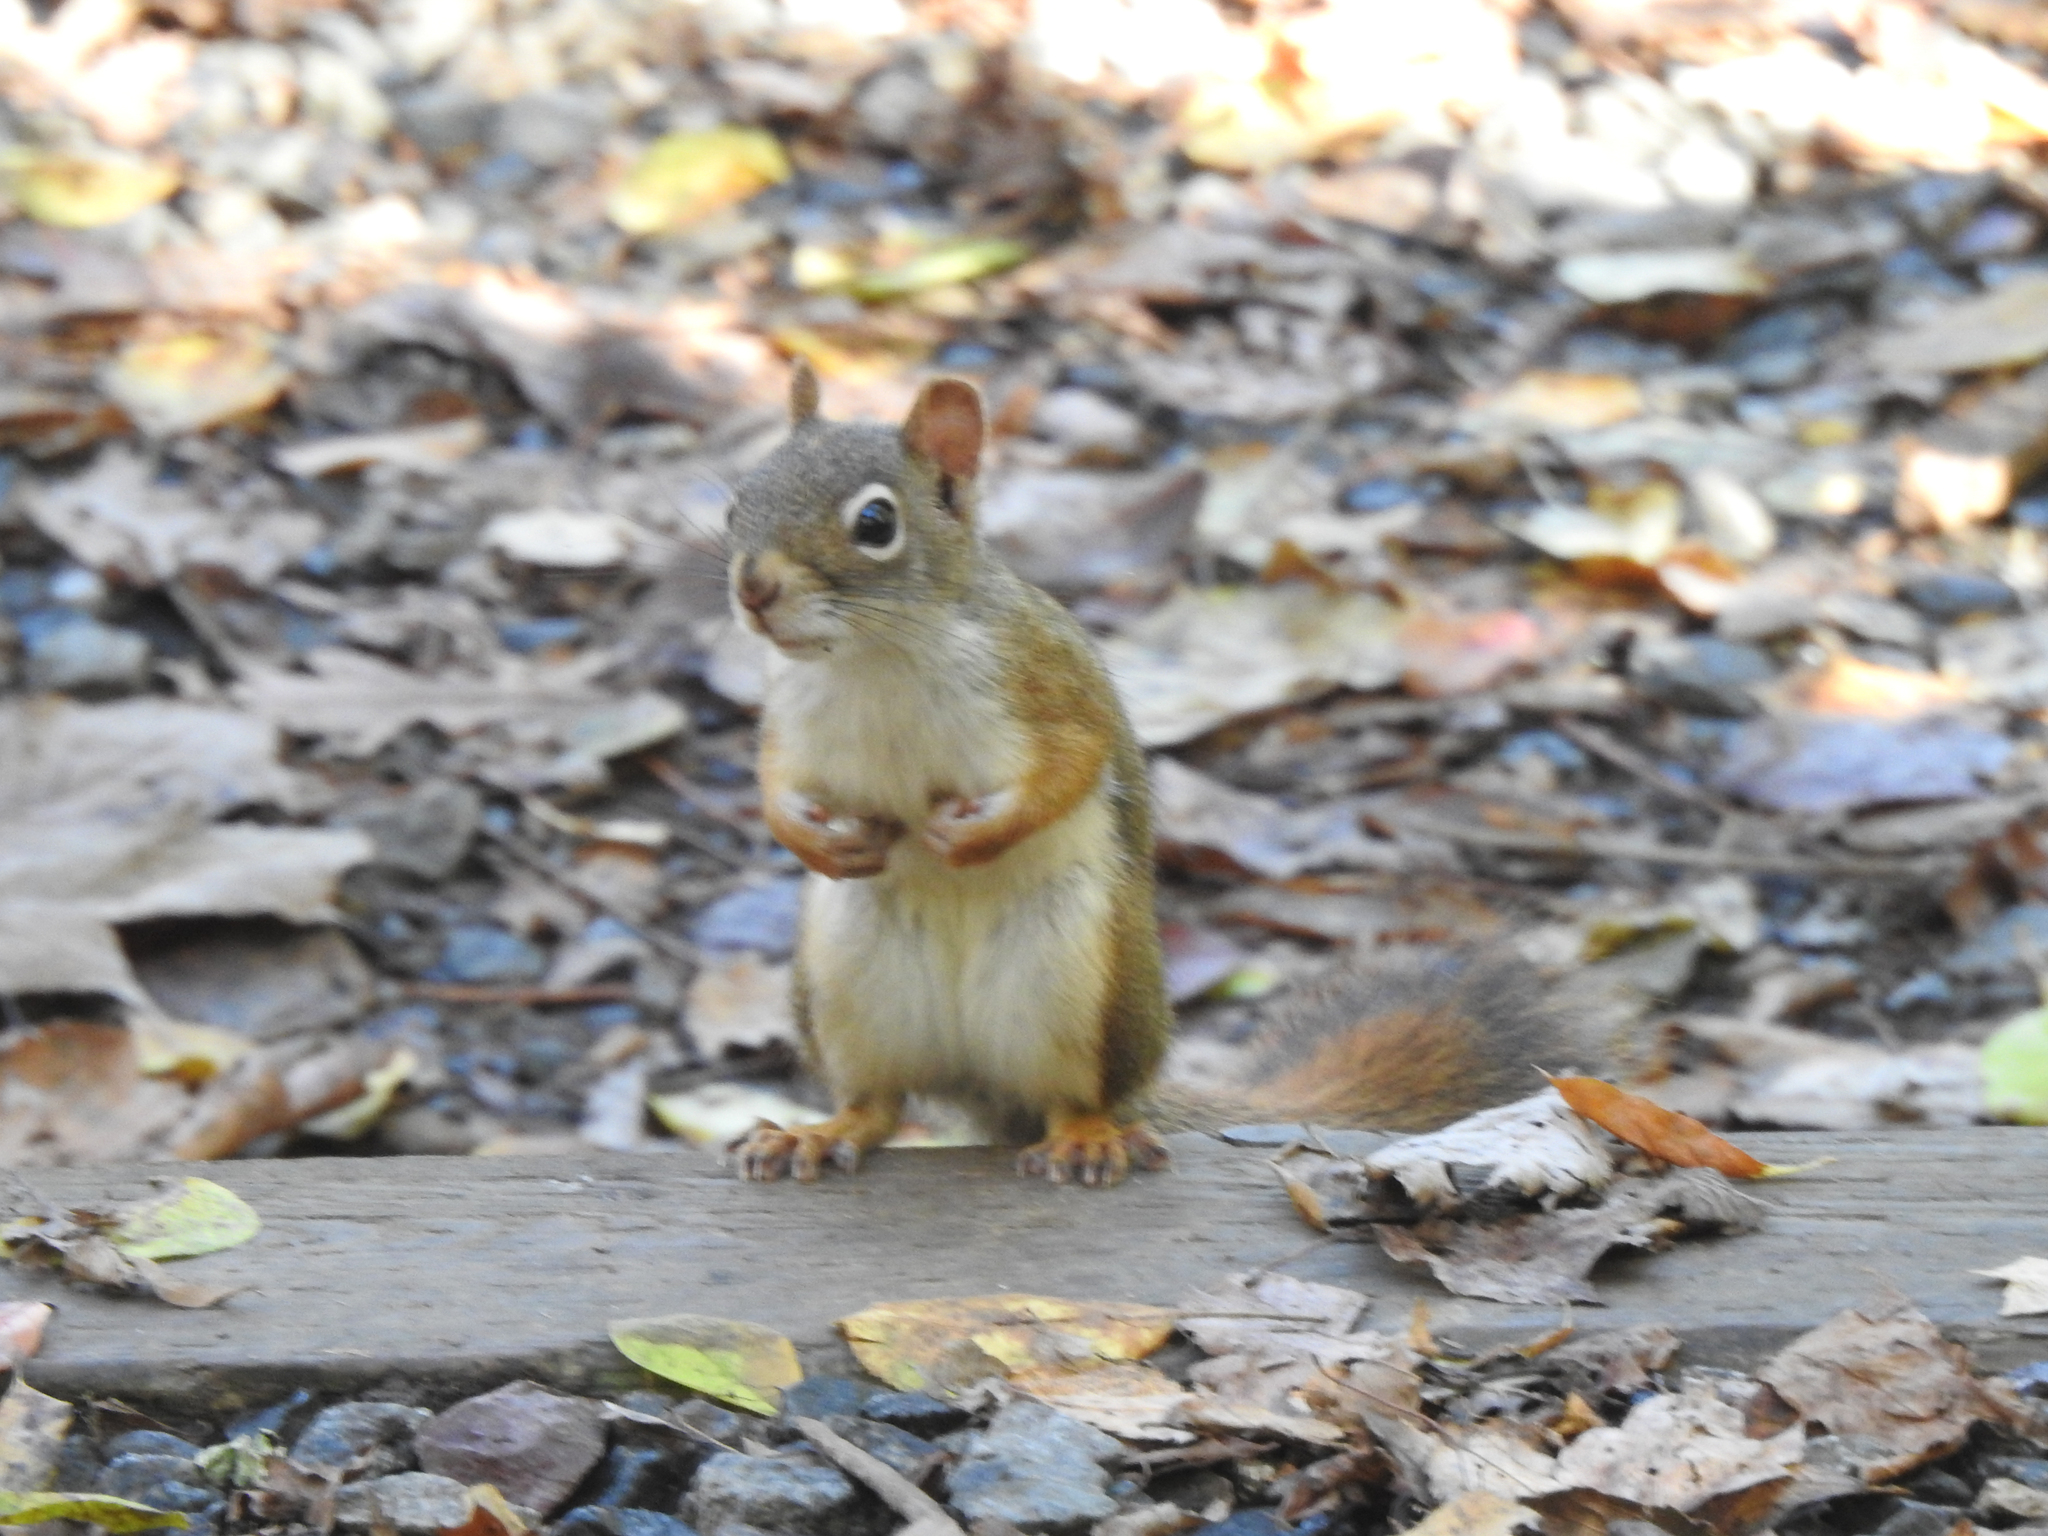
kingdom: Animalia
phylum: Chordata
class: Mammalia
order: Rodentia
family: Sciuridae
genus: Tamiasciurus
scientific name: Tamiasciurus hudsonicus
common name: Red squirrel
